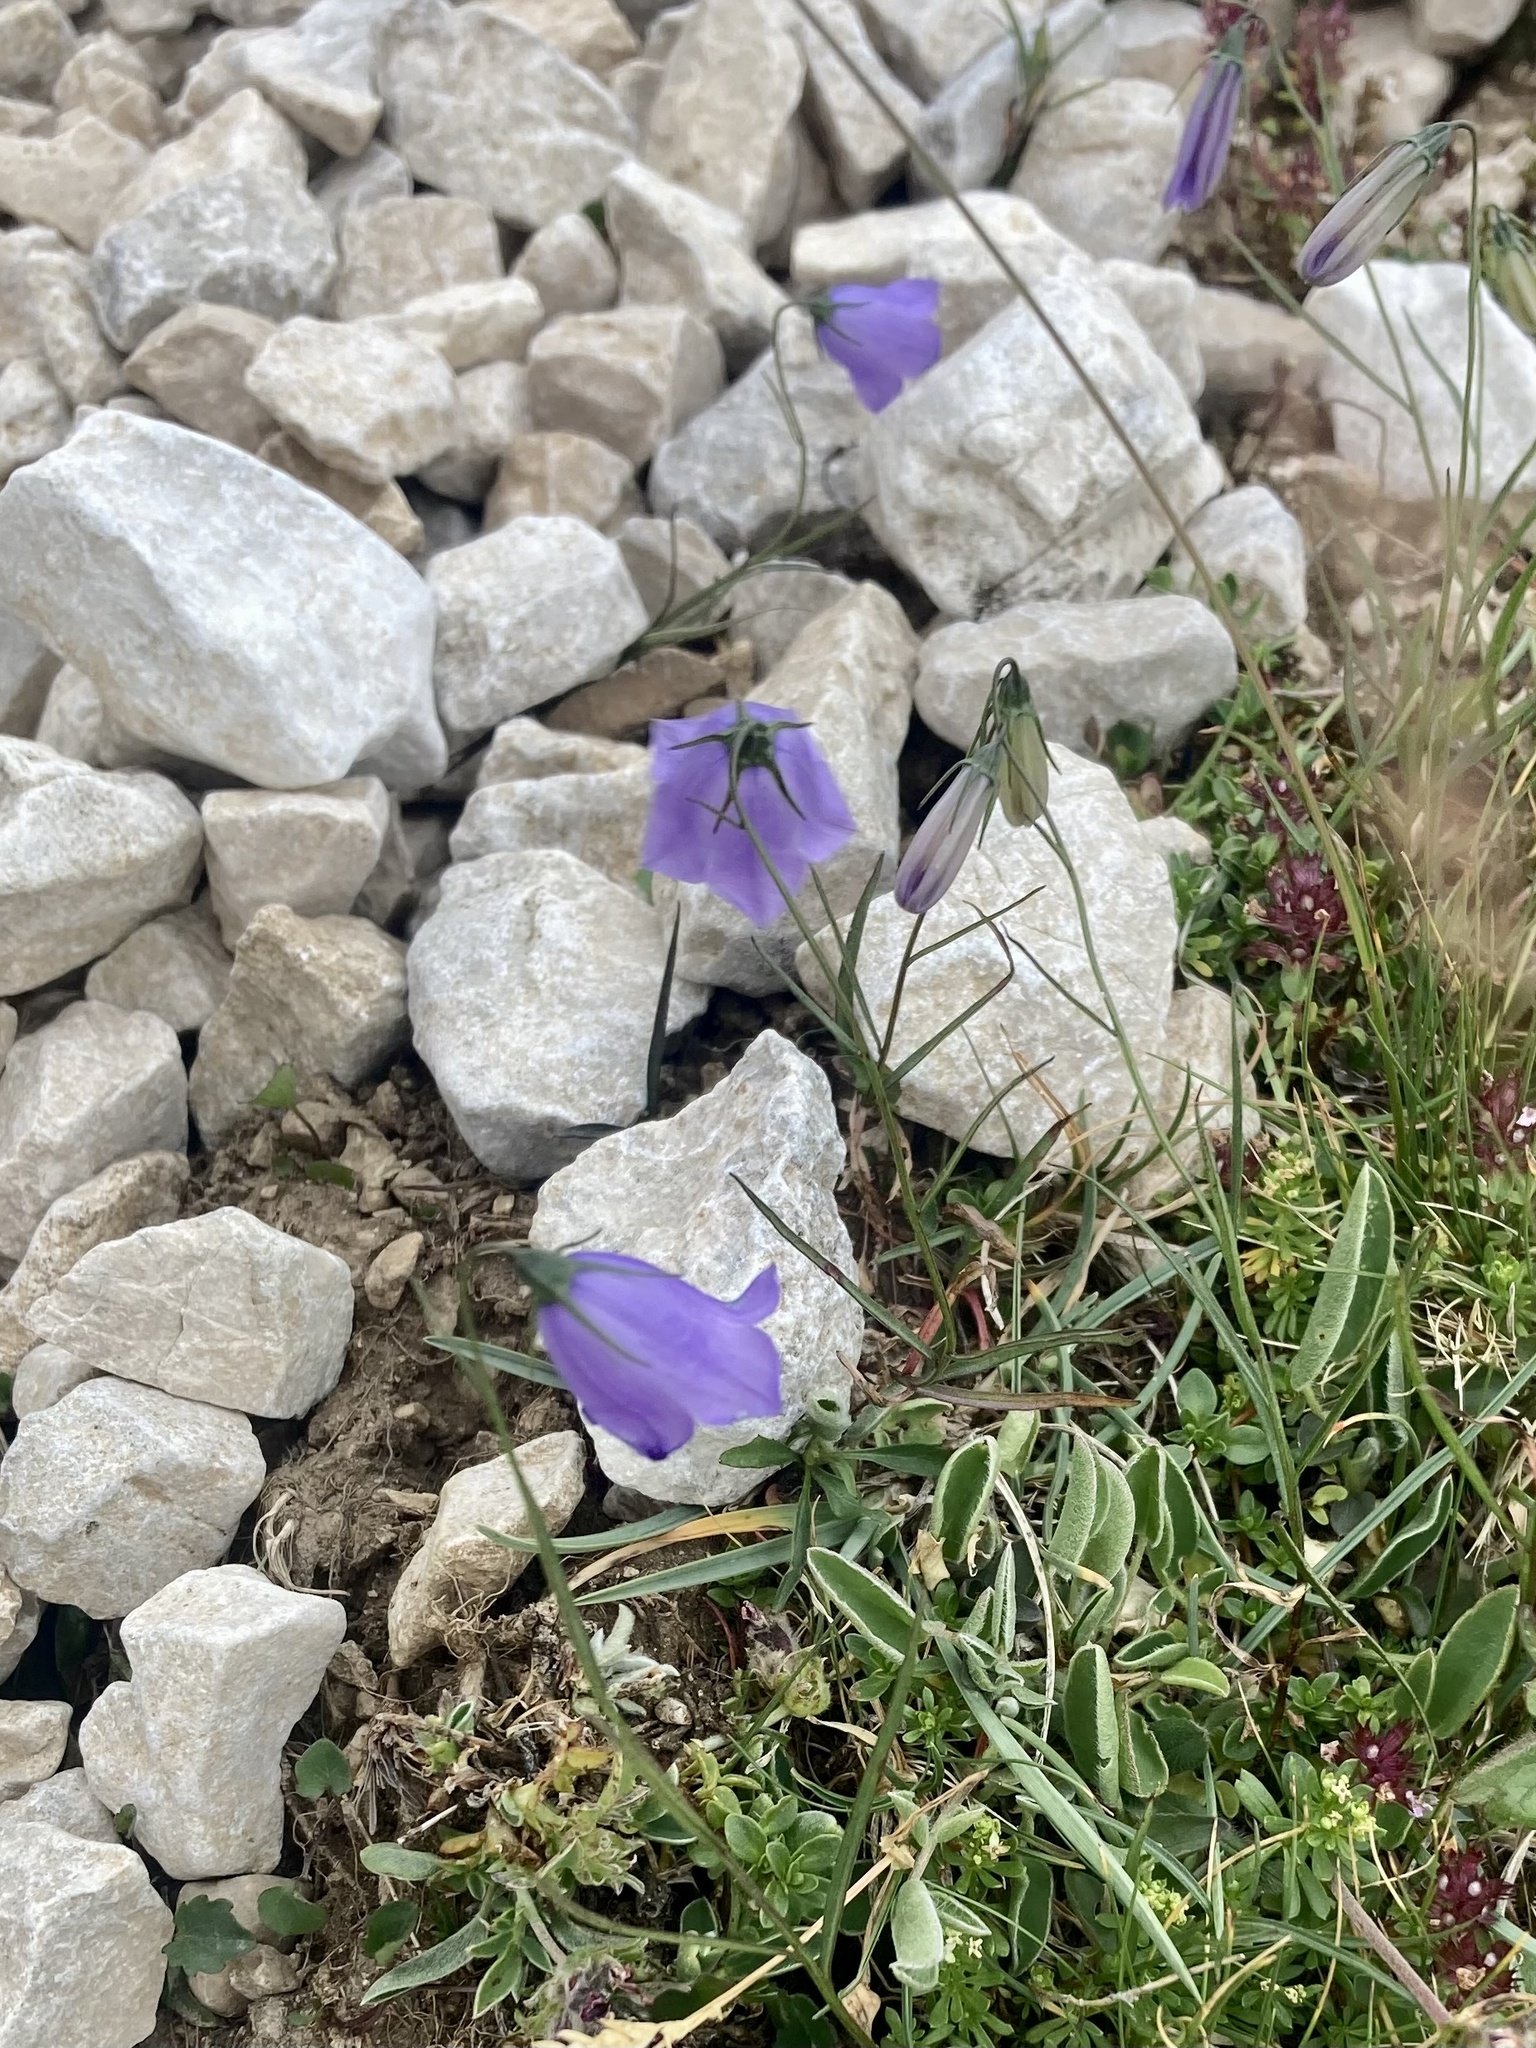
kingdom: Plantae
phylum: Tracheophyta
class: Magnoliopsida
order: Asterales
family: Campanulaceae
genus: Campanula
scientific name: Campanula scheuchzeri
